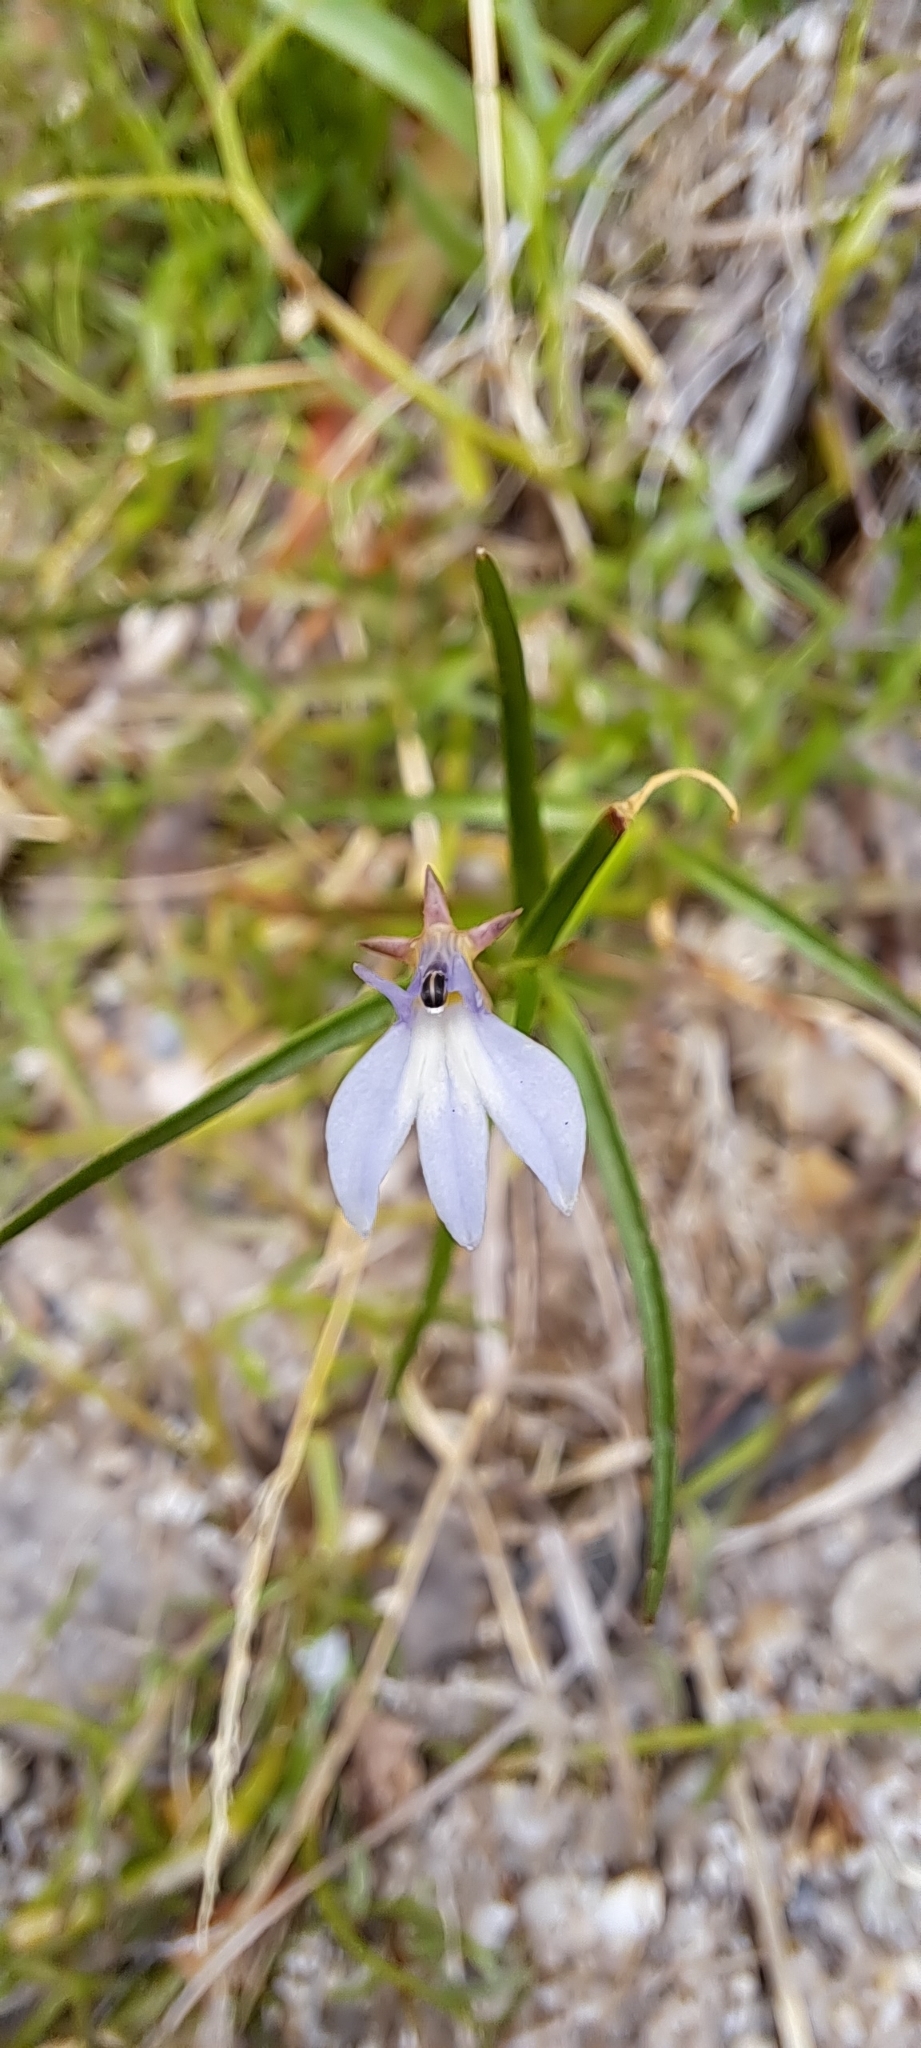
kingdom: Plantae
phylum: Tracheophyta
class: Magnoliopsida
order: Asterales
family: Campanulaceae
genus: Grammatotheca
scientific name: Grammatotheca bergiana
